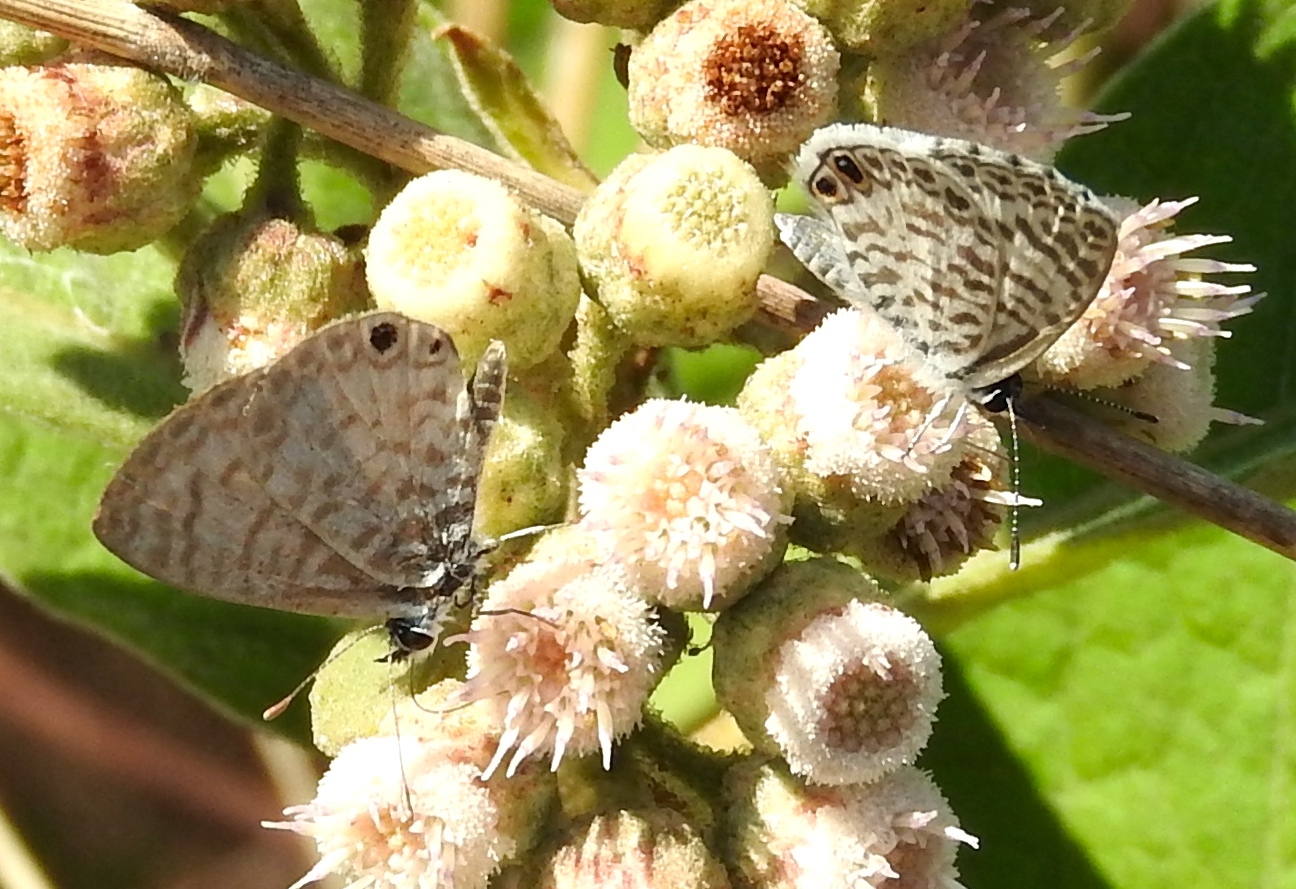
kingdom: Animalia
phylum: Arthropoda
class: Insecta
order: Lepidoptera
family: Lycaenidae
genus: Leptotes
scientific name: Leptotes cassius
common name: Cassius blue
